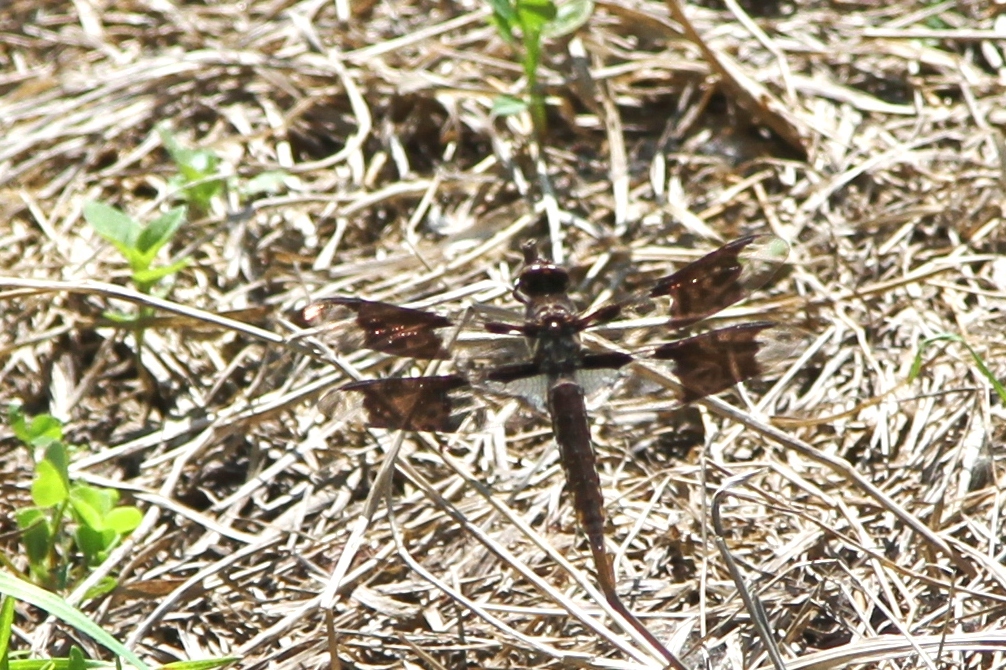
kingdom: Animalia
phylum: Arthropoda
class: Insecta
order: Odonata
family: Libellulidae
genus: Plathemis
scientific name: Plathemis lydia
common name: Common whitetail
